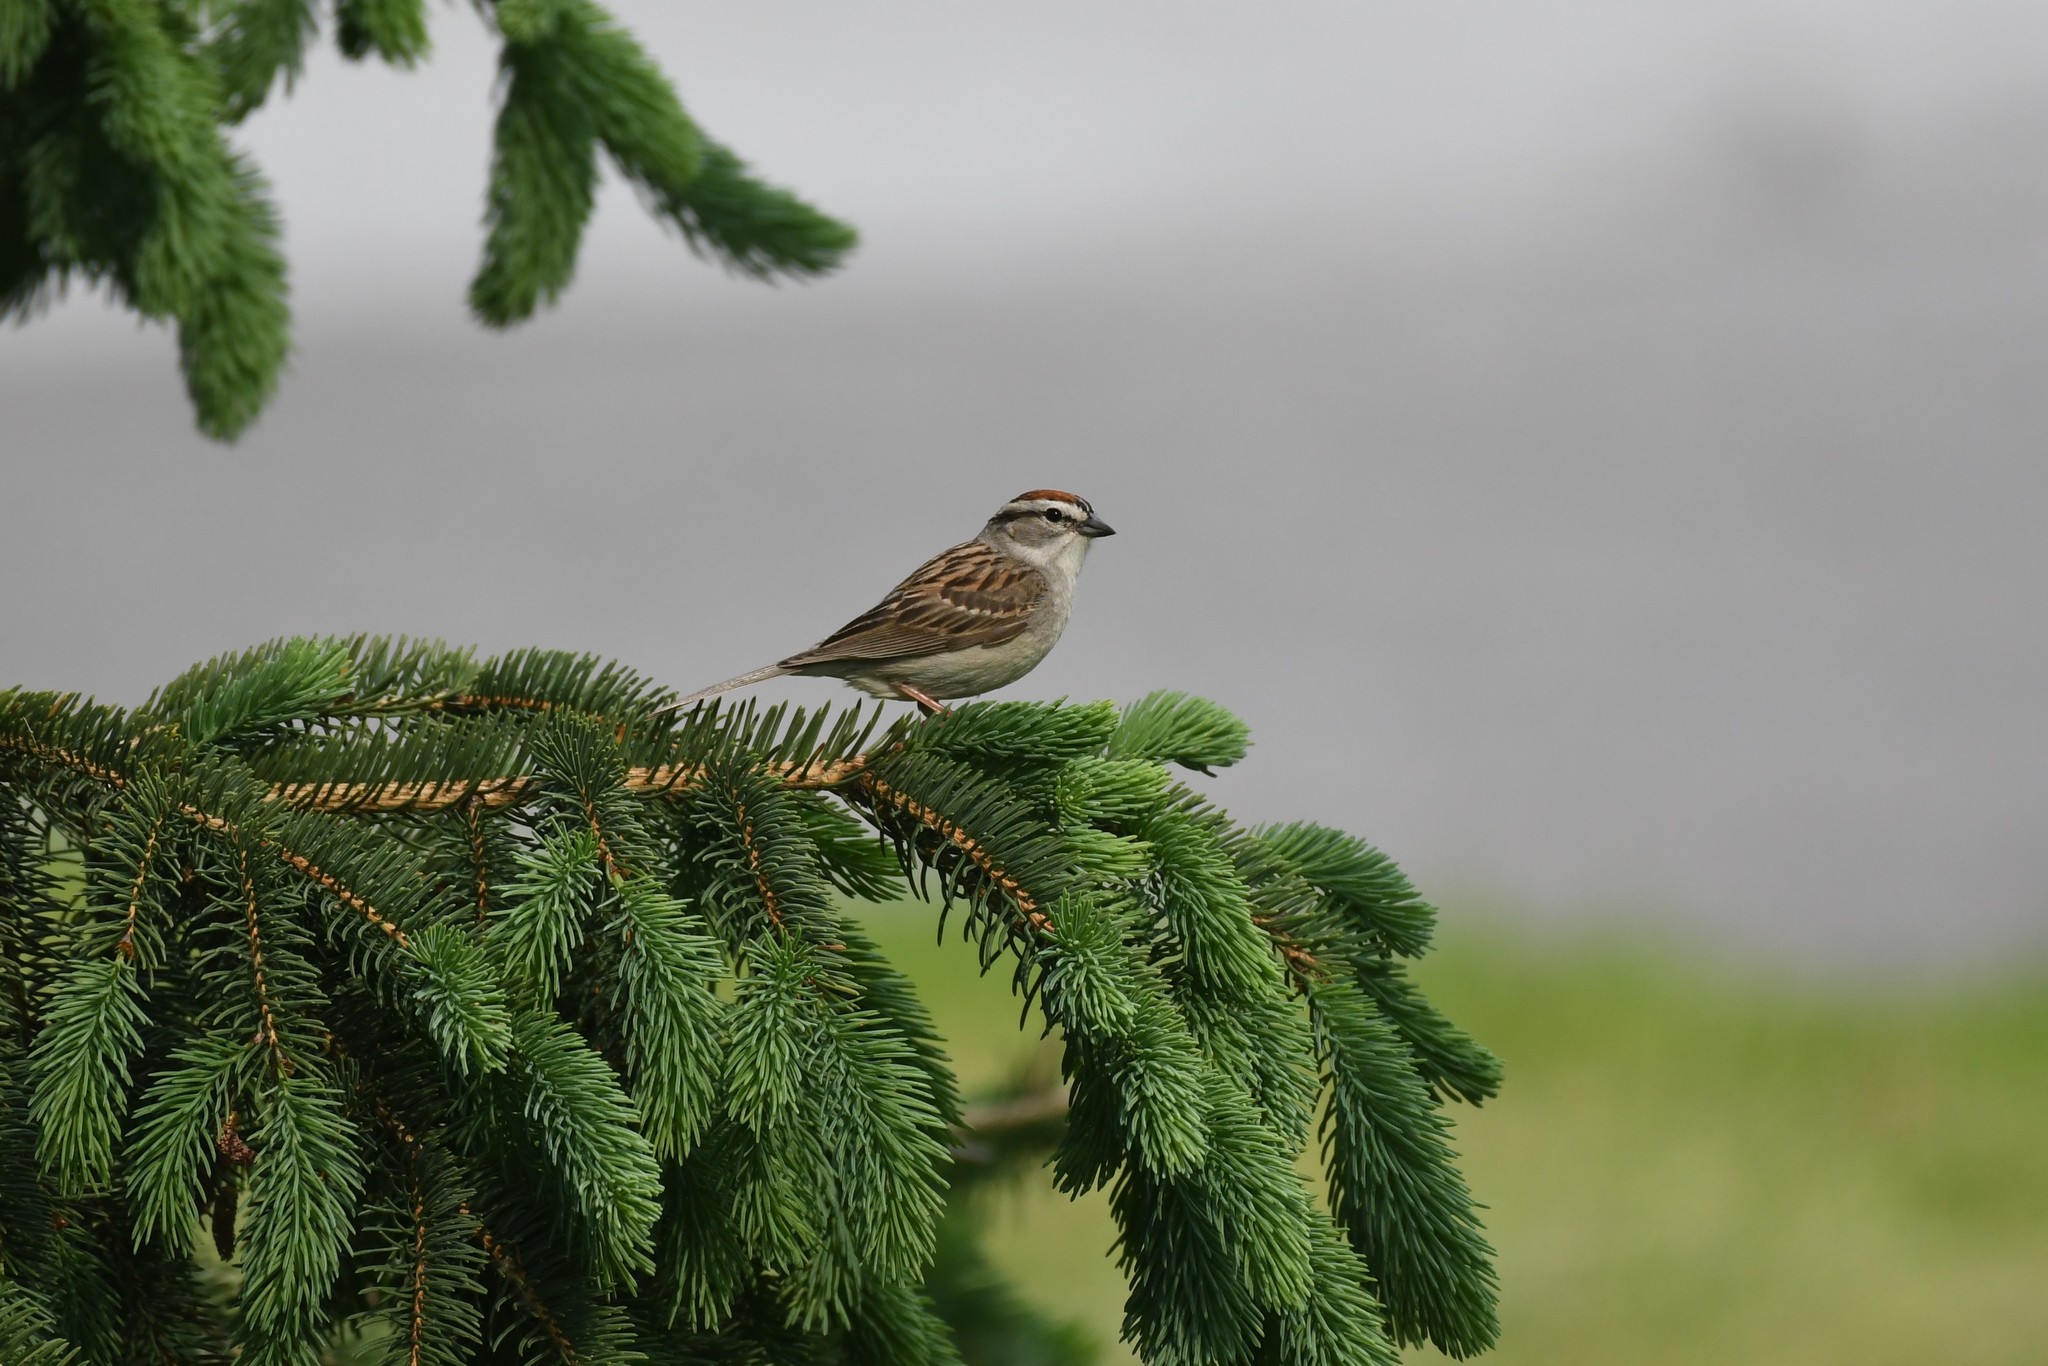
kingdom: Animalia
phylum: Chordata
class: Aves
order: Passeriformes
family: Passerellidae
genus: Spizella
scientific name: Spizella passerina
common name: Chipping sparrow
